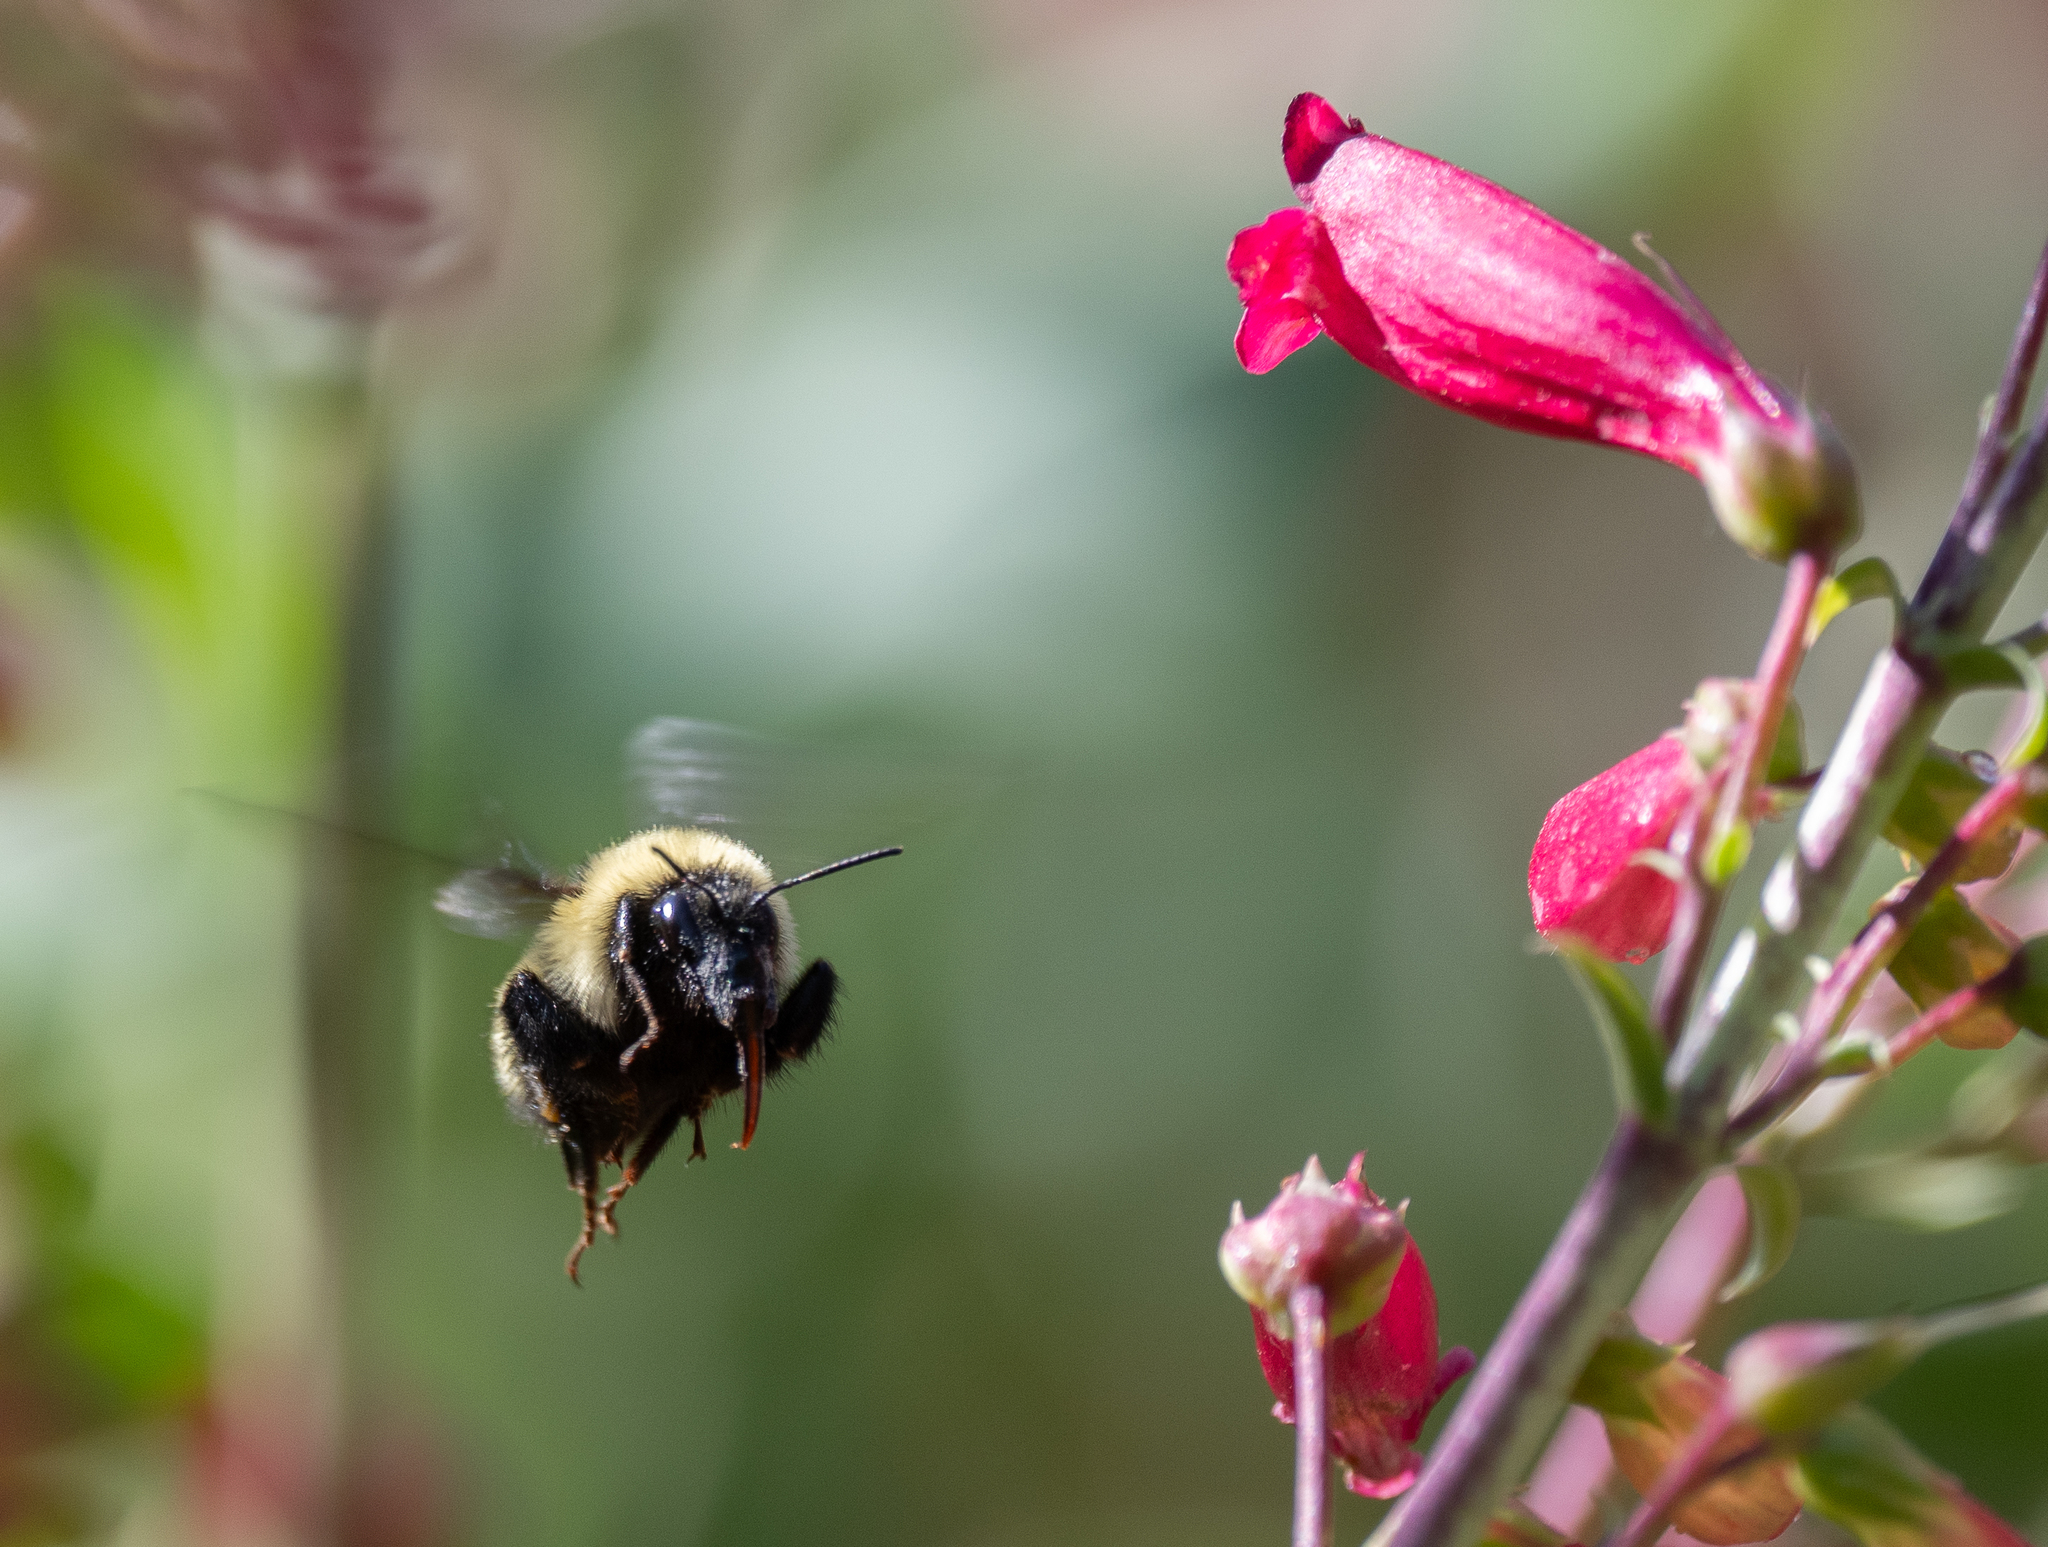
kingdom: Animalia
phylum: Arthropoda
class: Insecta
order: Hymenoptera
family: Apidae
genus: Bombus
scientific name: Bombus fervidus
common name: Yellow bumble bee
